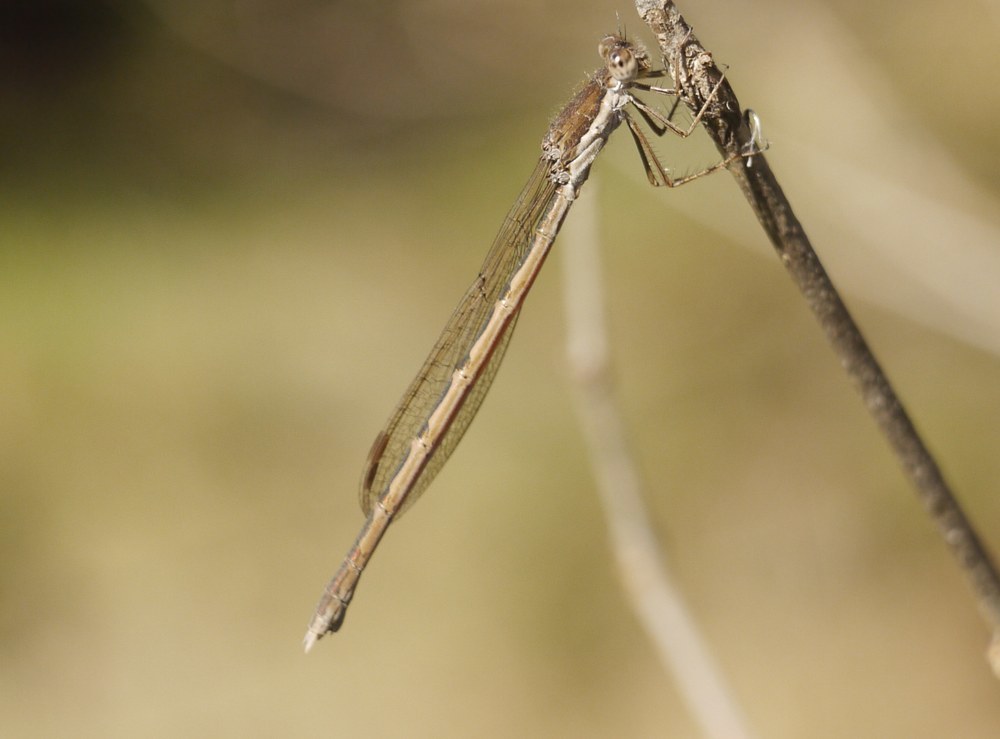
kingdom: Animalia
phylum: Arthropoda
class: Insecta
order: Odonata
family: Lestidae
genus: Sympecma
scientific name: Sympecma fusca
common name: Common winter damsel
